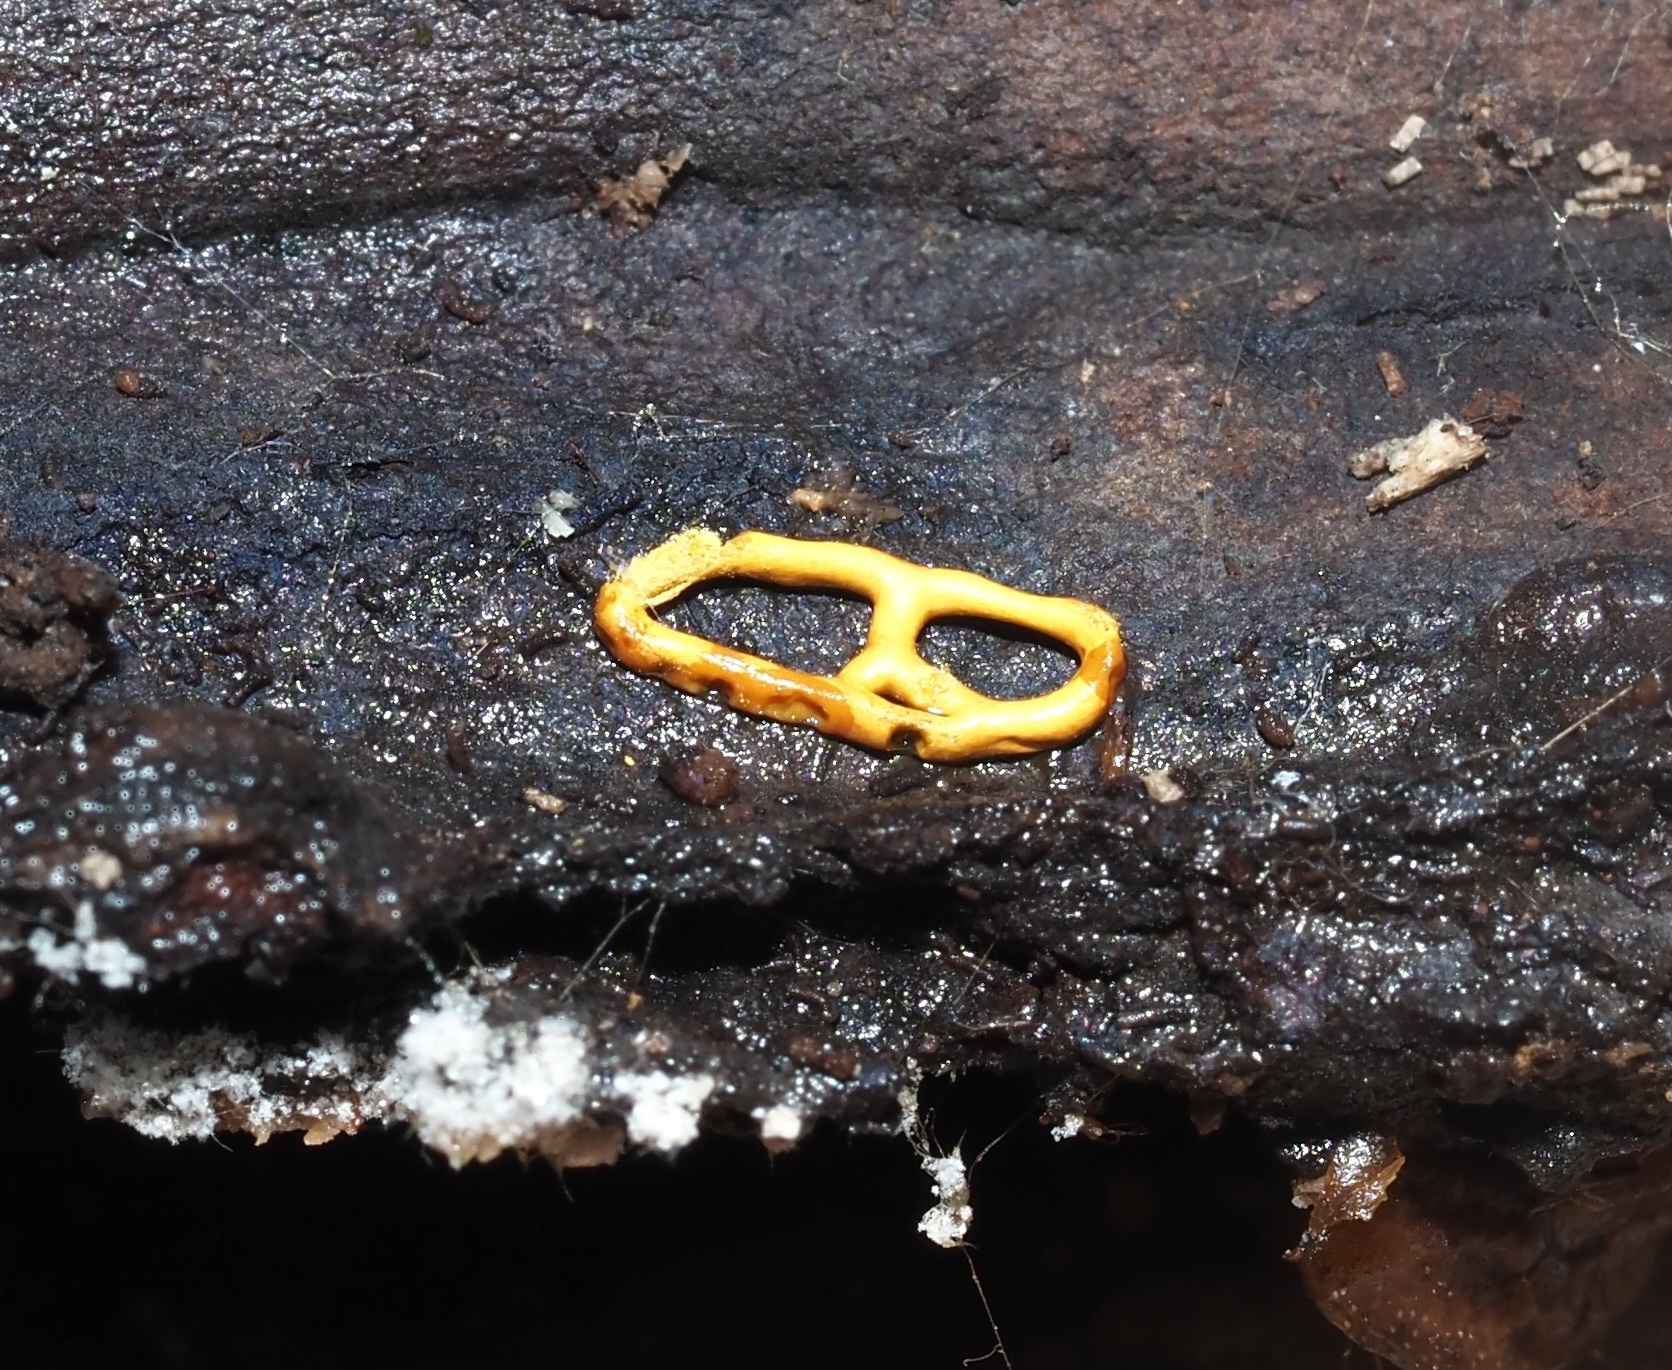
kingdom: Protozoa
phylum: Mycetozoa
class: Myxomycetes
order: Trichiales
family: Arcyriaceae
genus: Hemitrichia
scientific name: Hemitrichia serpula
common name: Pretzel slime mold
